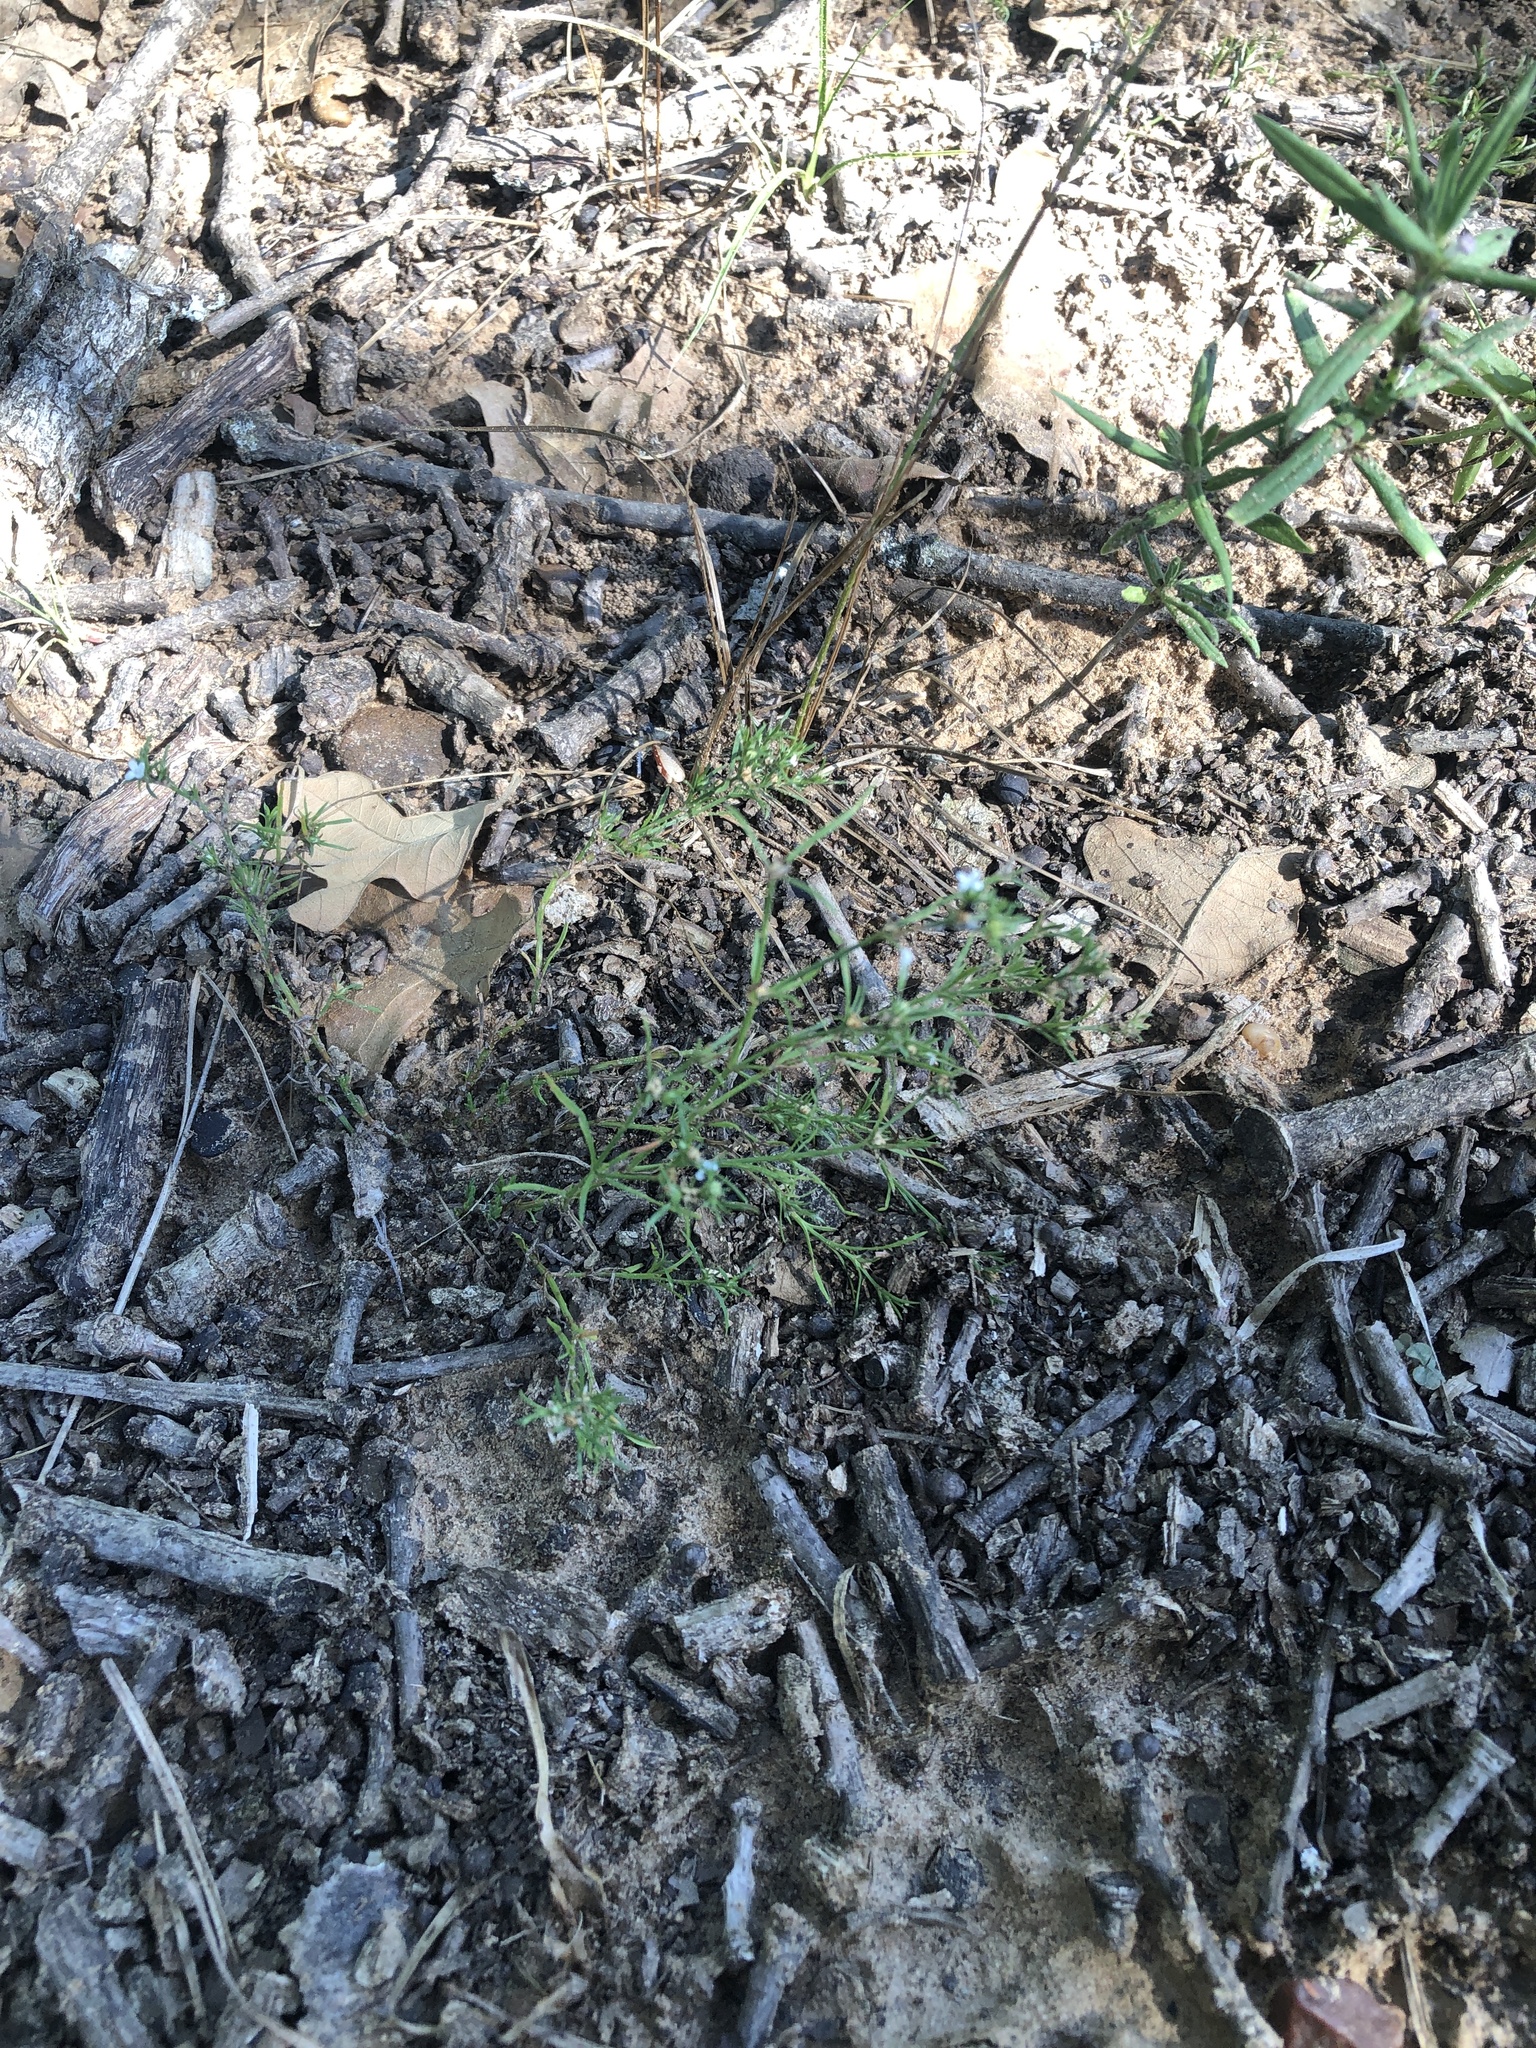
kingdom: Plantae
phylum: Tracheophyta
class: Magnoliopsida
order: Lamiales
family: Tetrachondraceae
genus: Polypremum
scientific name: Polypremum procumbens
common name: Juniper-leaf
